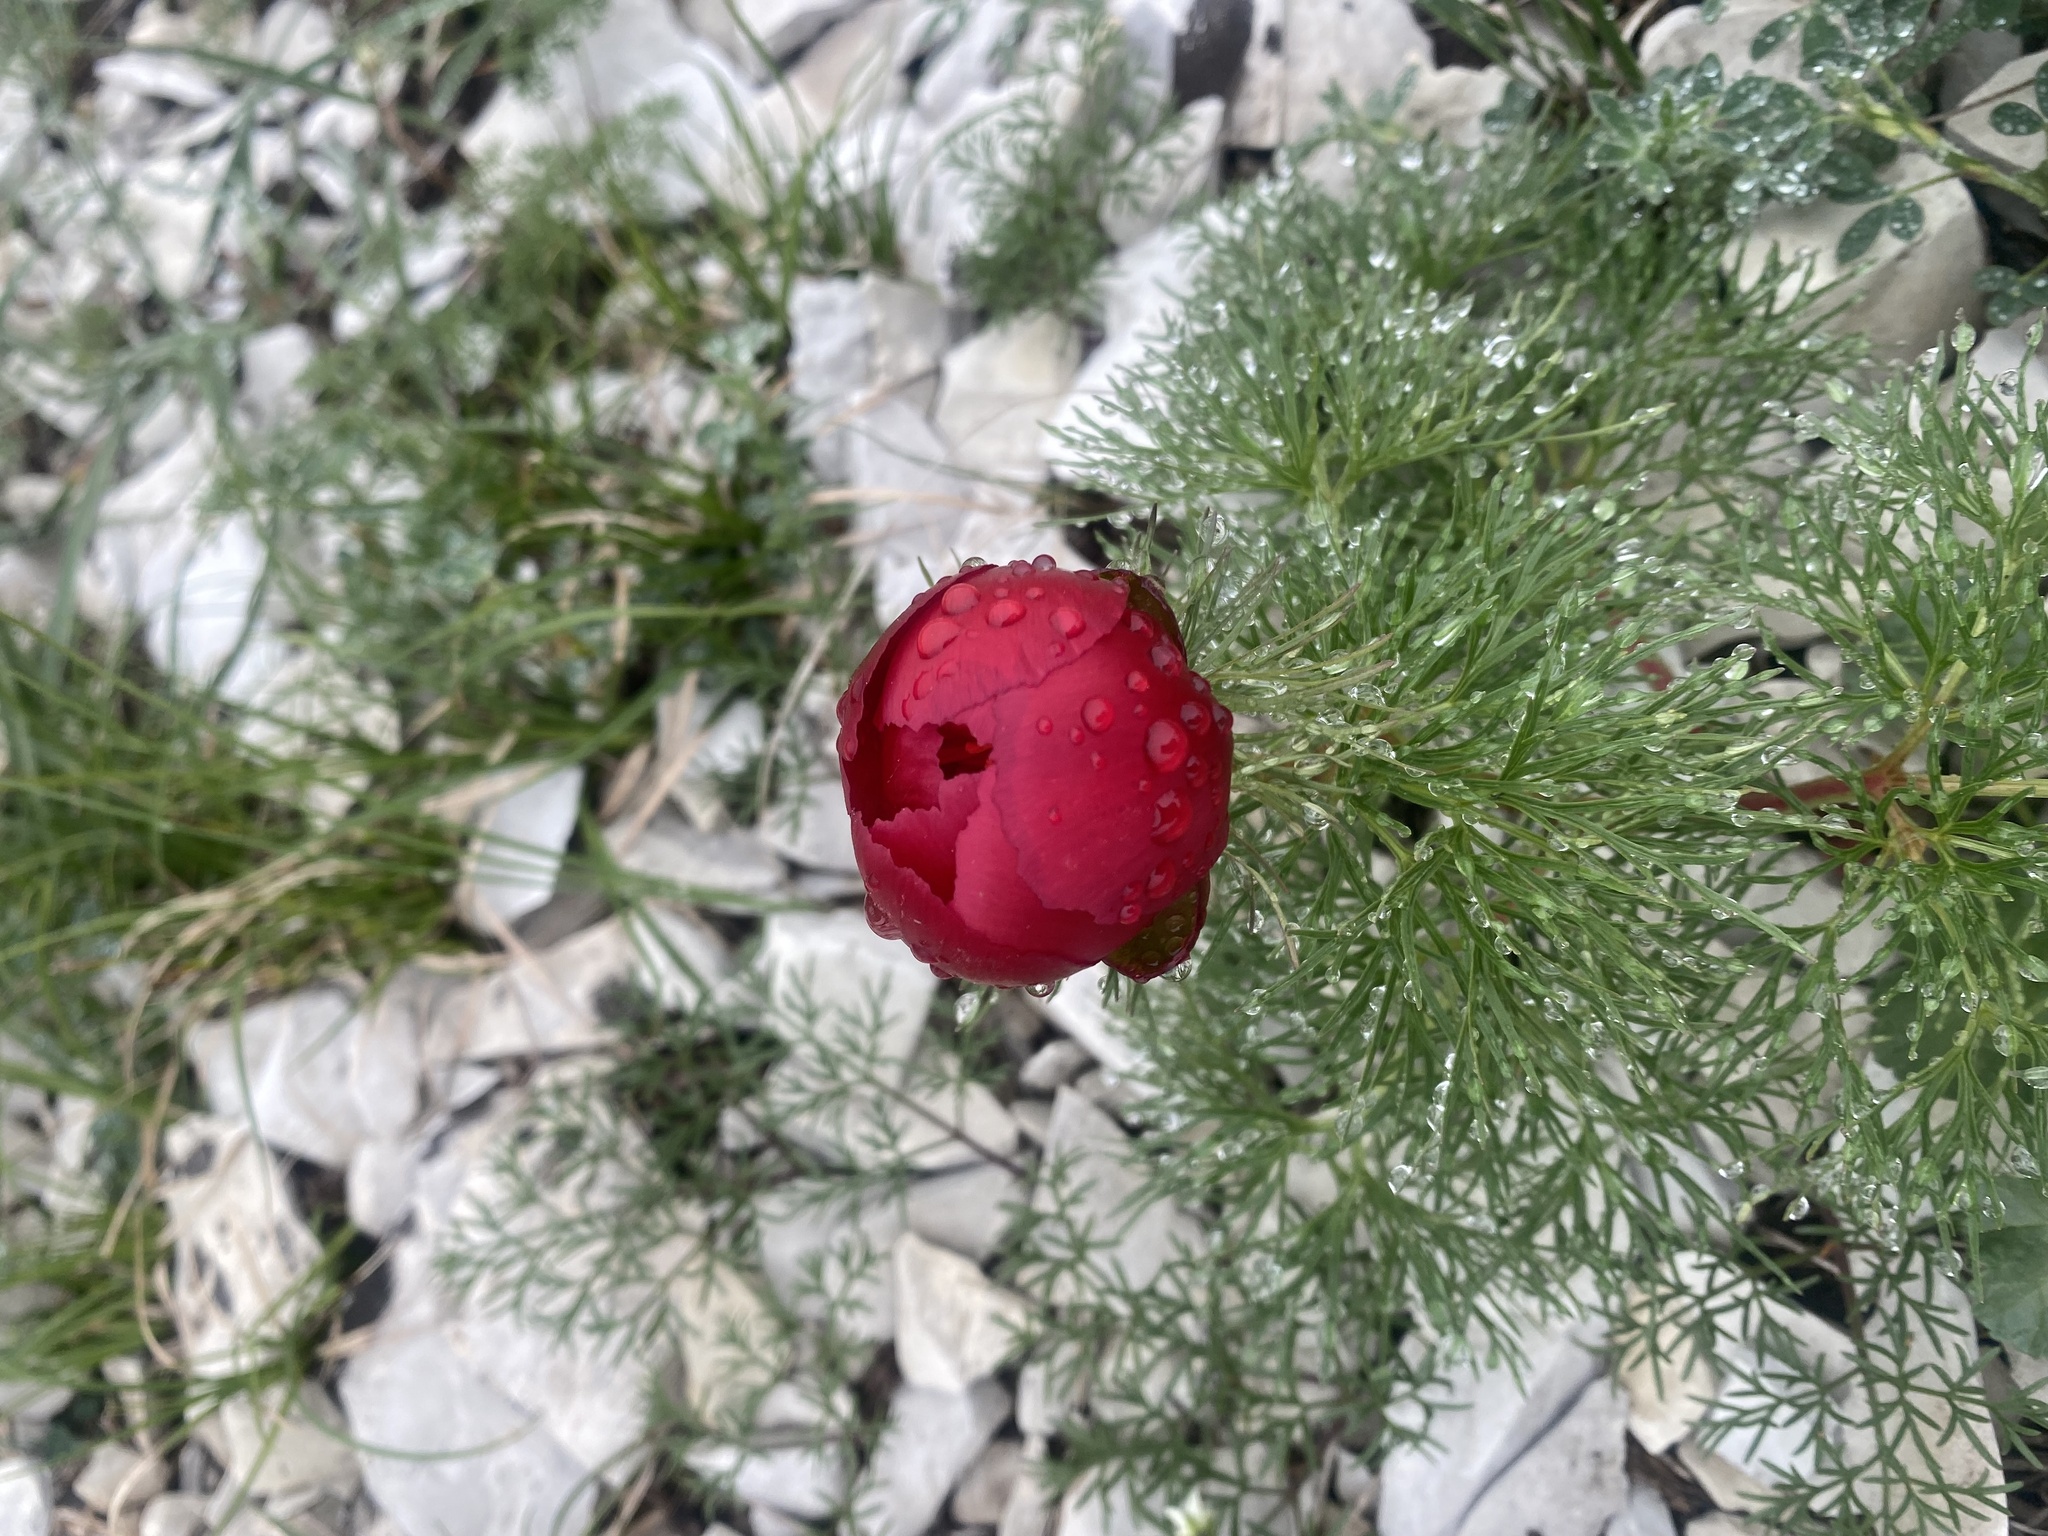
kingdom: Plantae
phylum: Tracheophyta
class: Magnoliopsida
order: Saxifragales
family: Paeoniaceae
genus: Paeonia
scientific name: Paeonia tenuifolia
